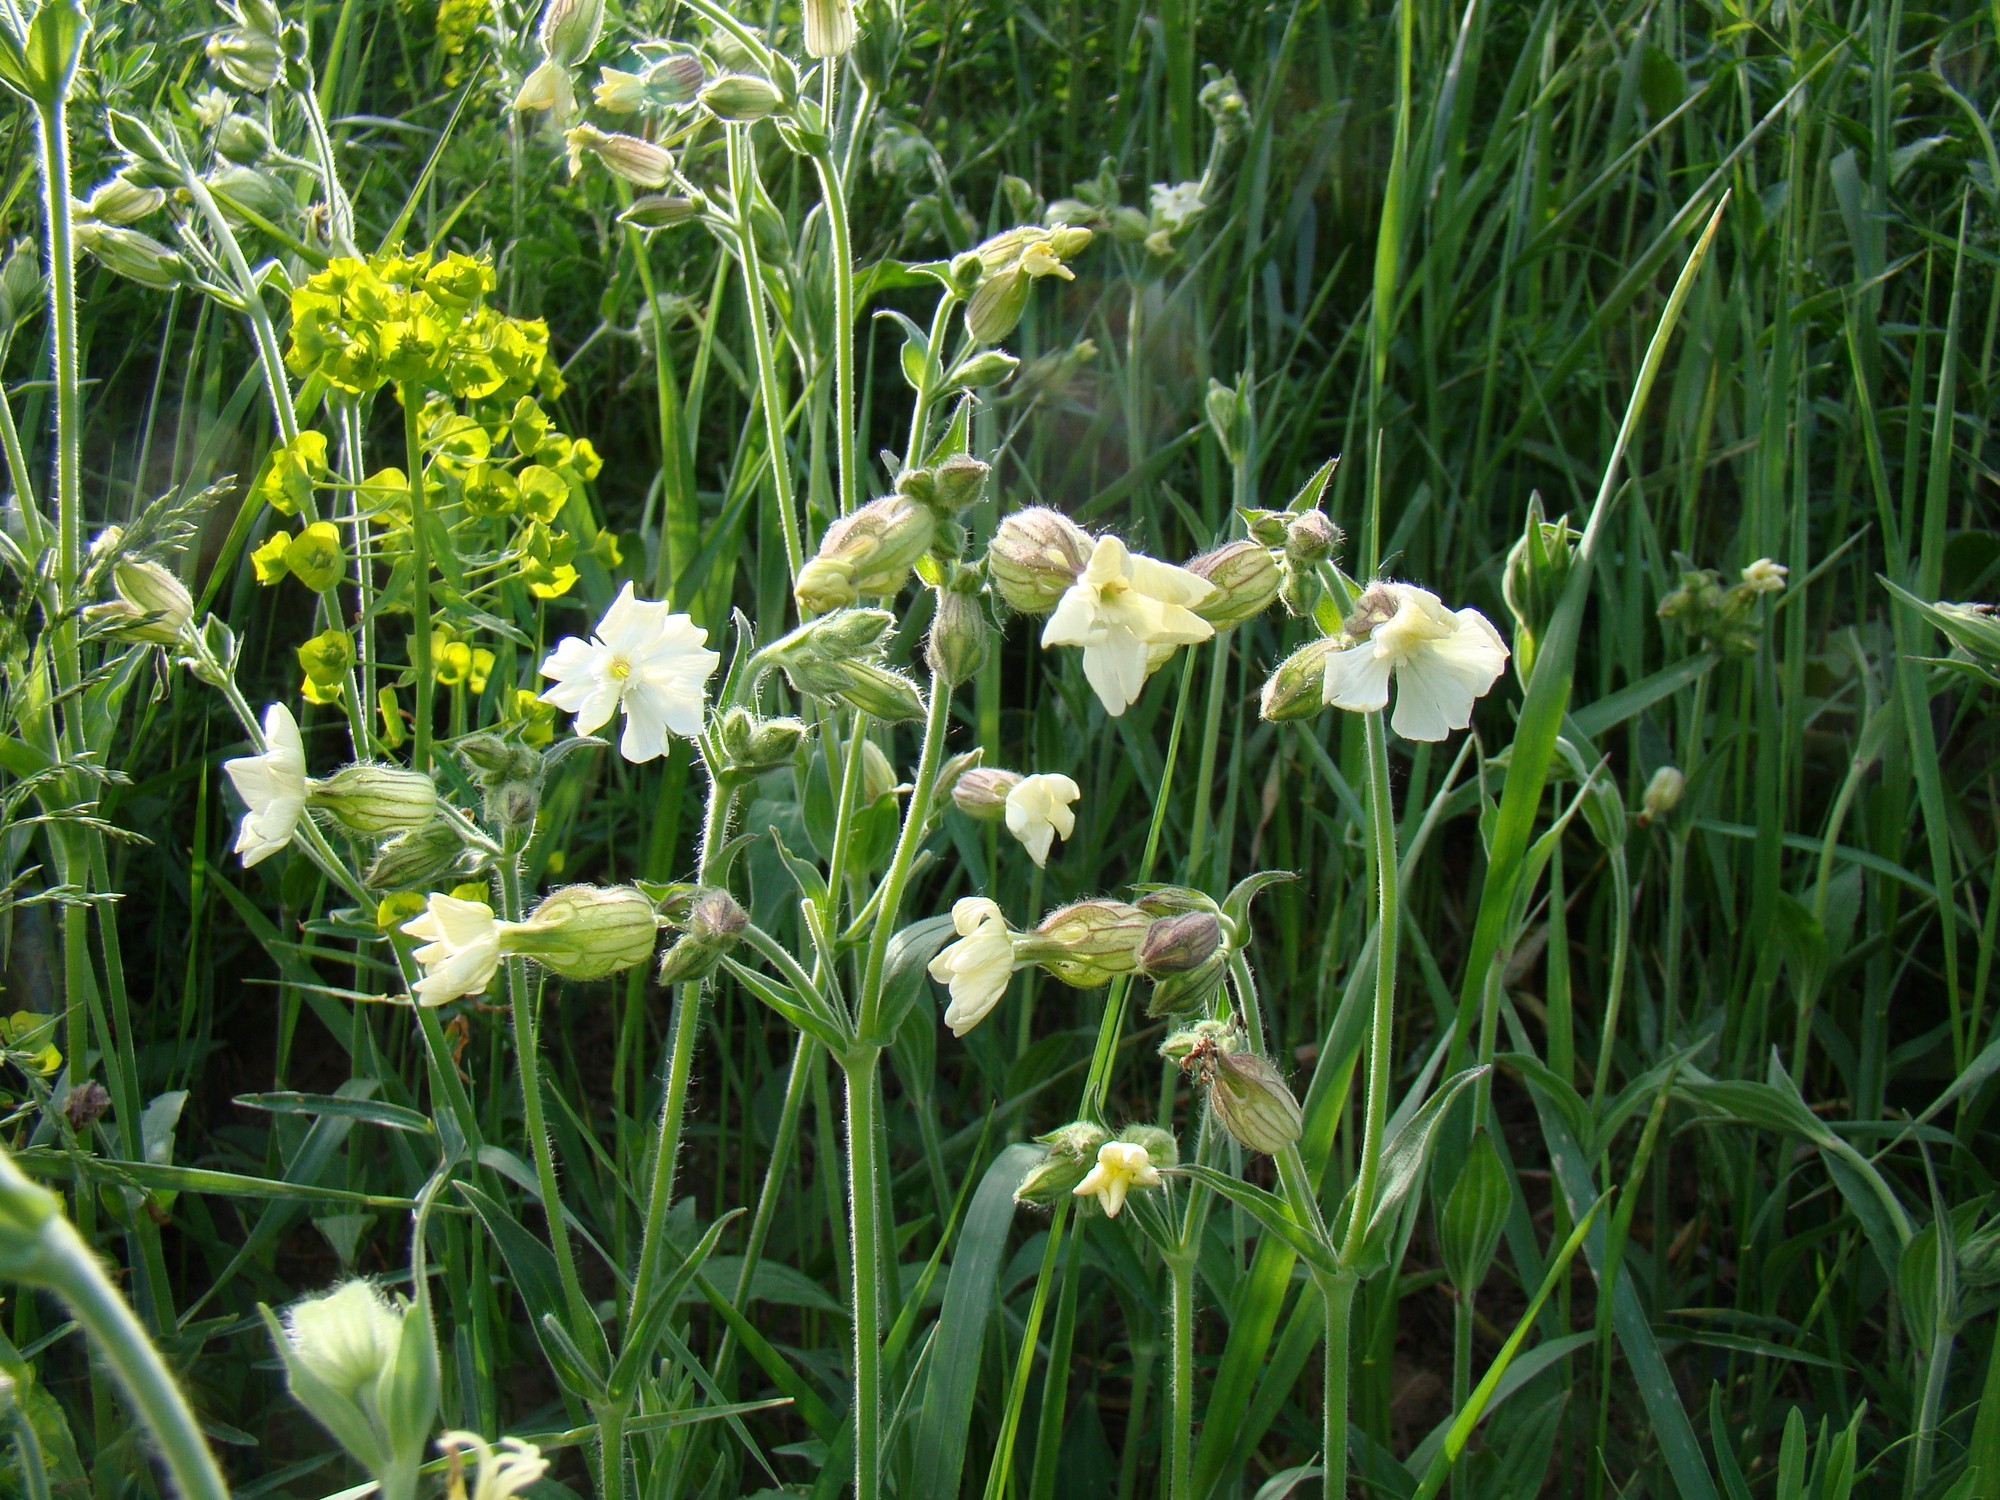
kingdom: Plantae
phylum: Tracheophyta
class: Magnoliopsida
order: Caryophyllales
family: Caryophyllaceae
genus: Silene
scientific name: Silene latifolia
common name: White campion
